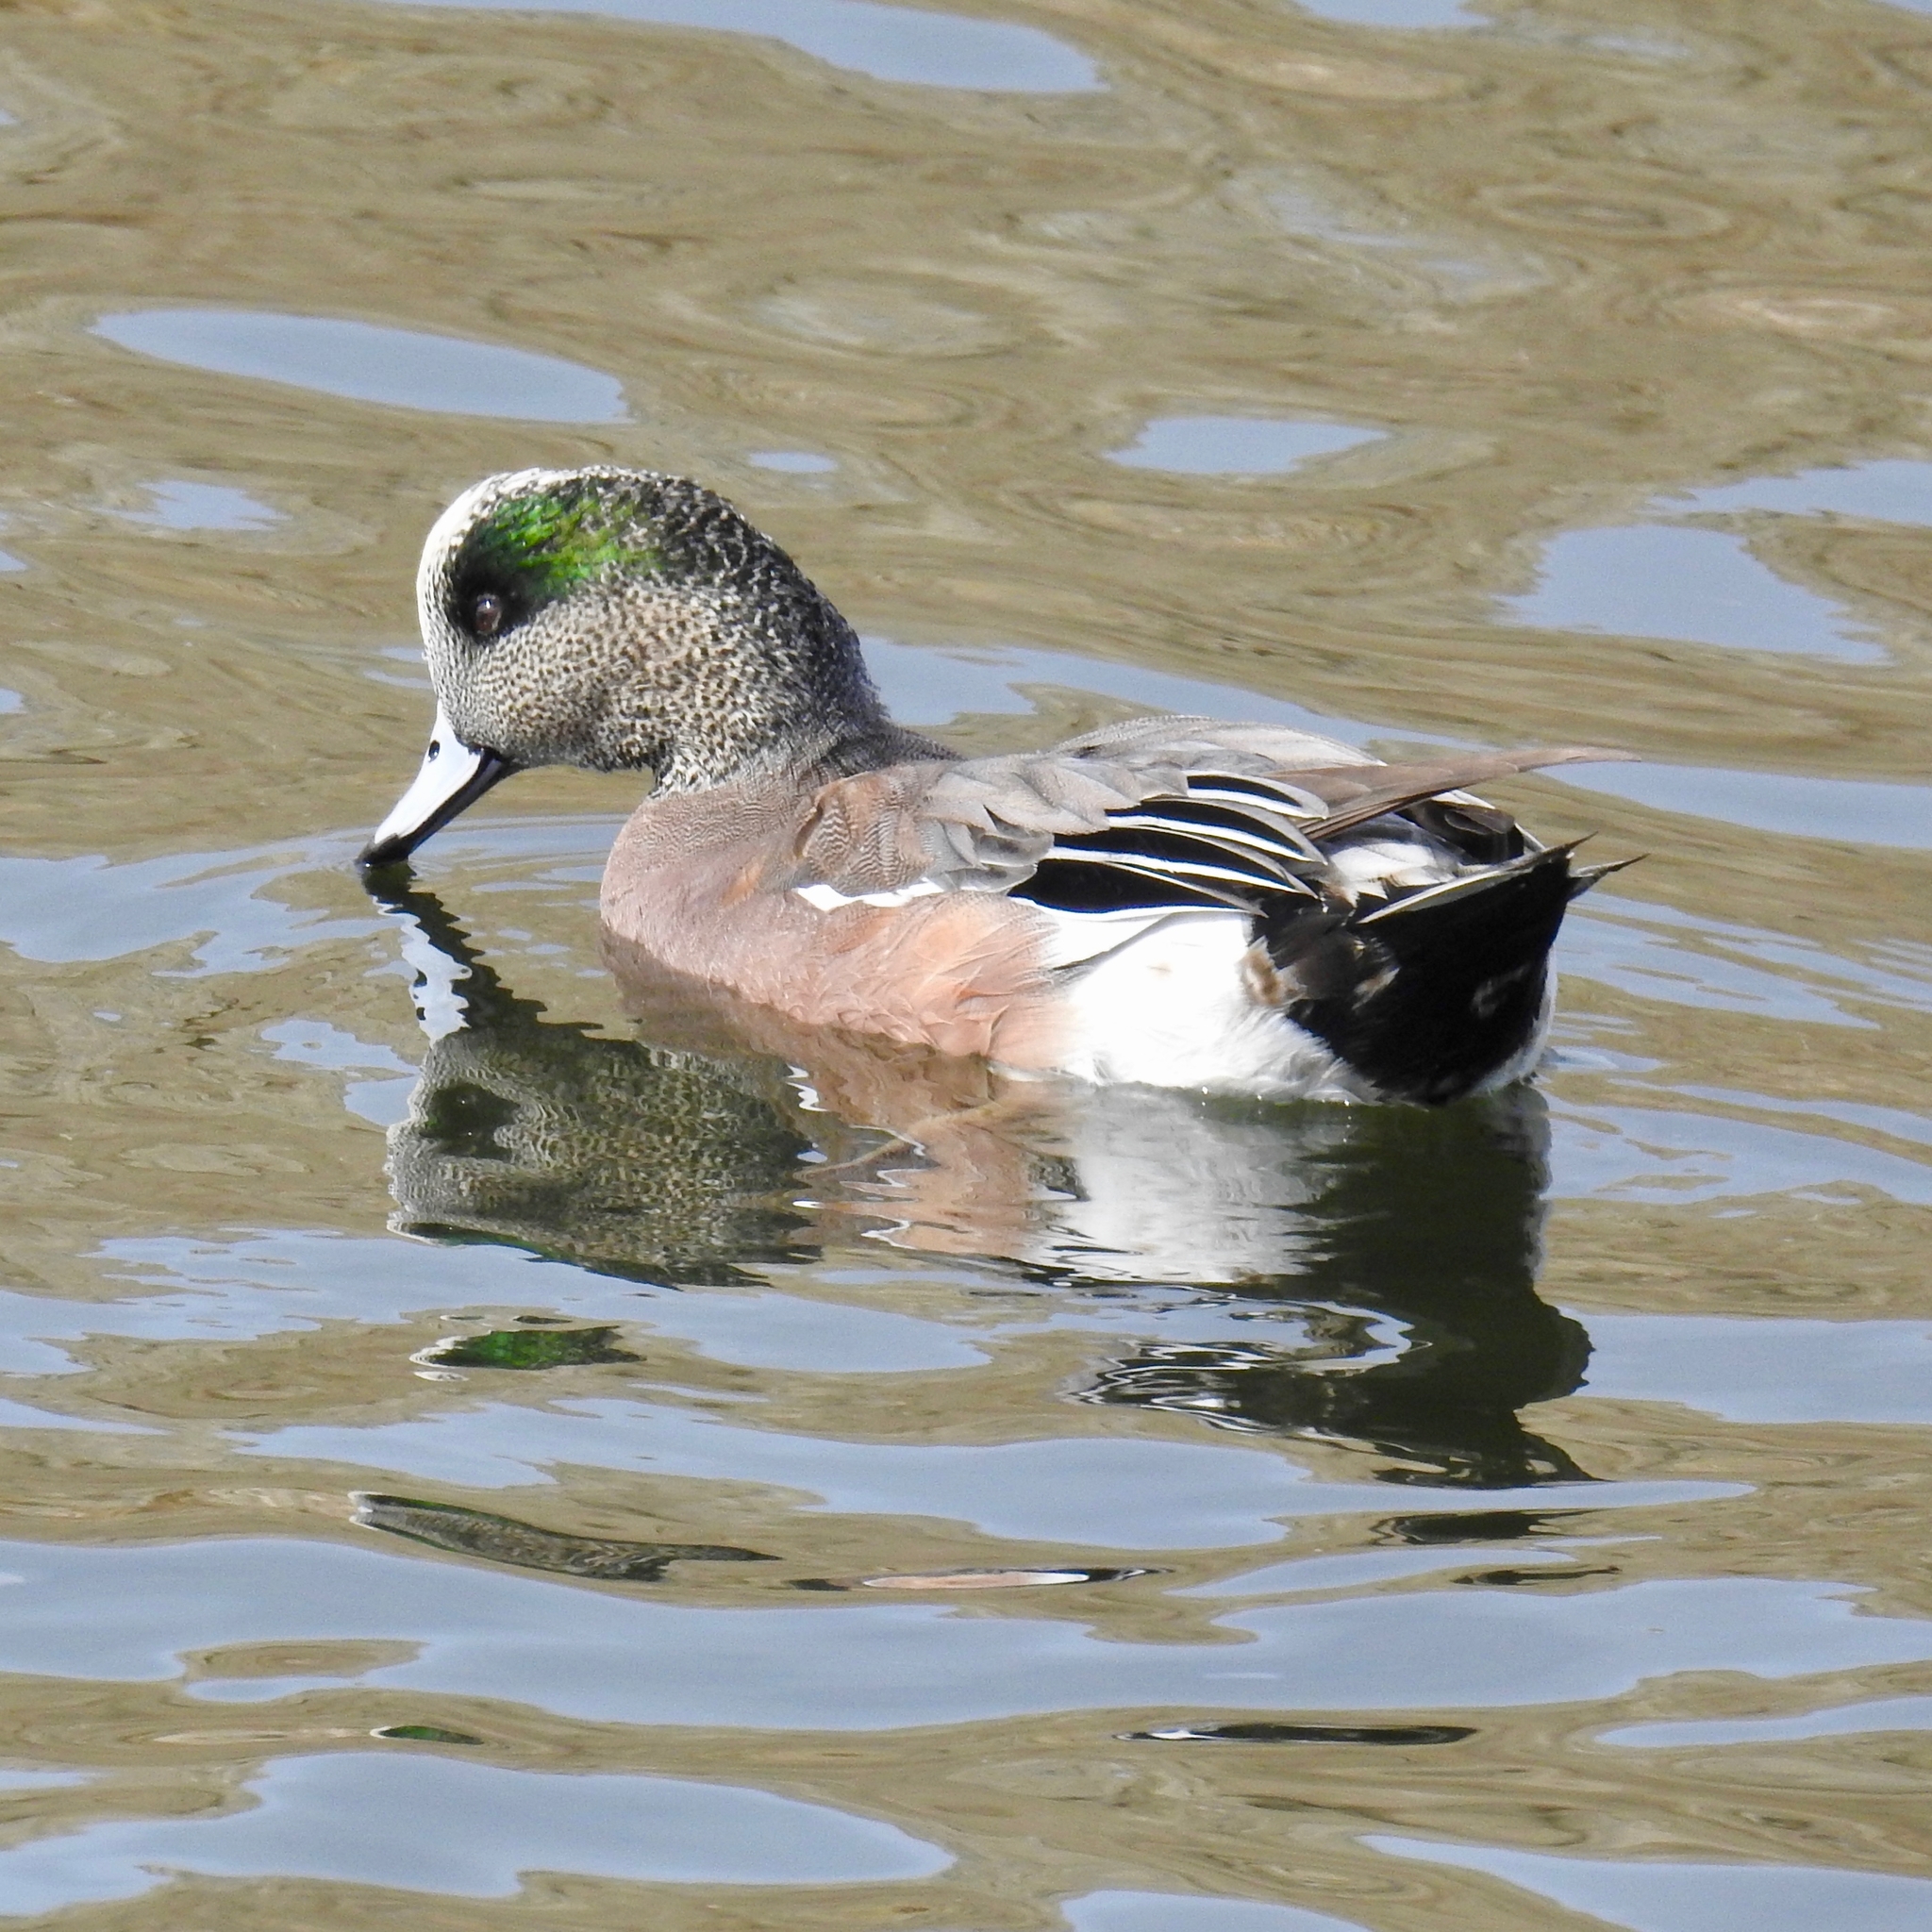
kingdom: Animalia
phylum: Chordata
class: Aves
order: Anseriformes
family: Anatidae
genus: Mareca
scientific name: Mareca americana
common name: American wigeon
